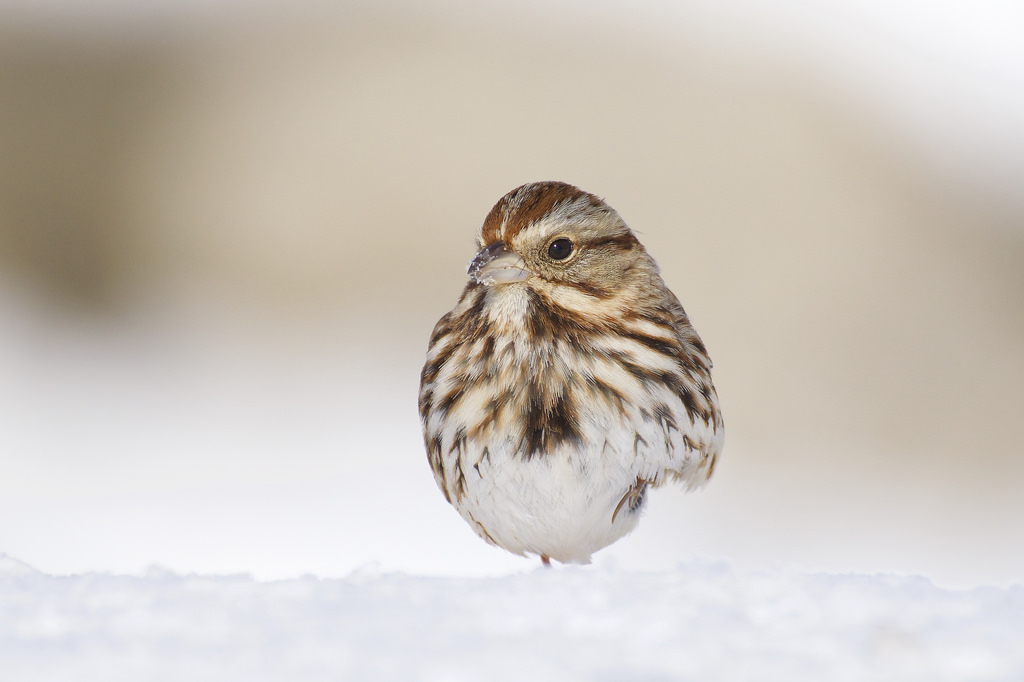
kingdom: Animalia
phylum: Chordata
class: Aves
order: Passeriformes
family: Passerellidae
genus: Melospiza
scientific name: Melospiza melodia
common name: Song sparrow
